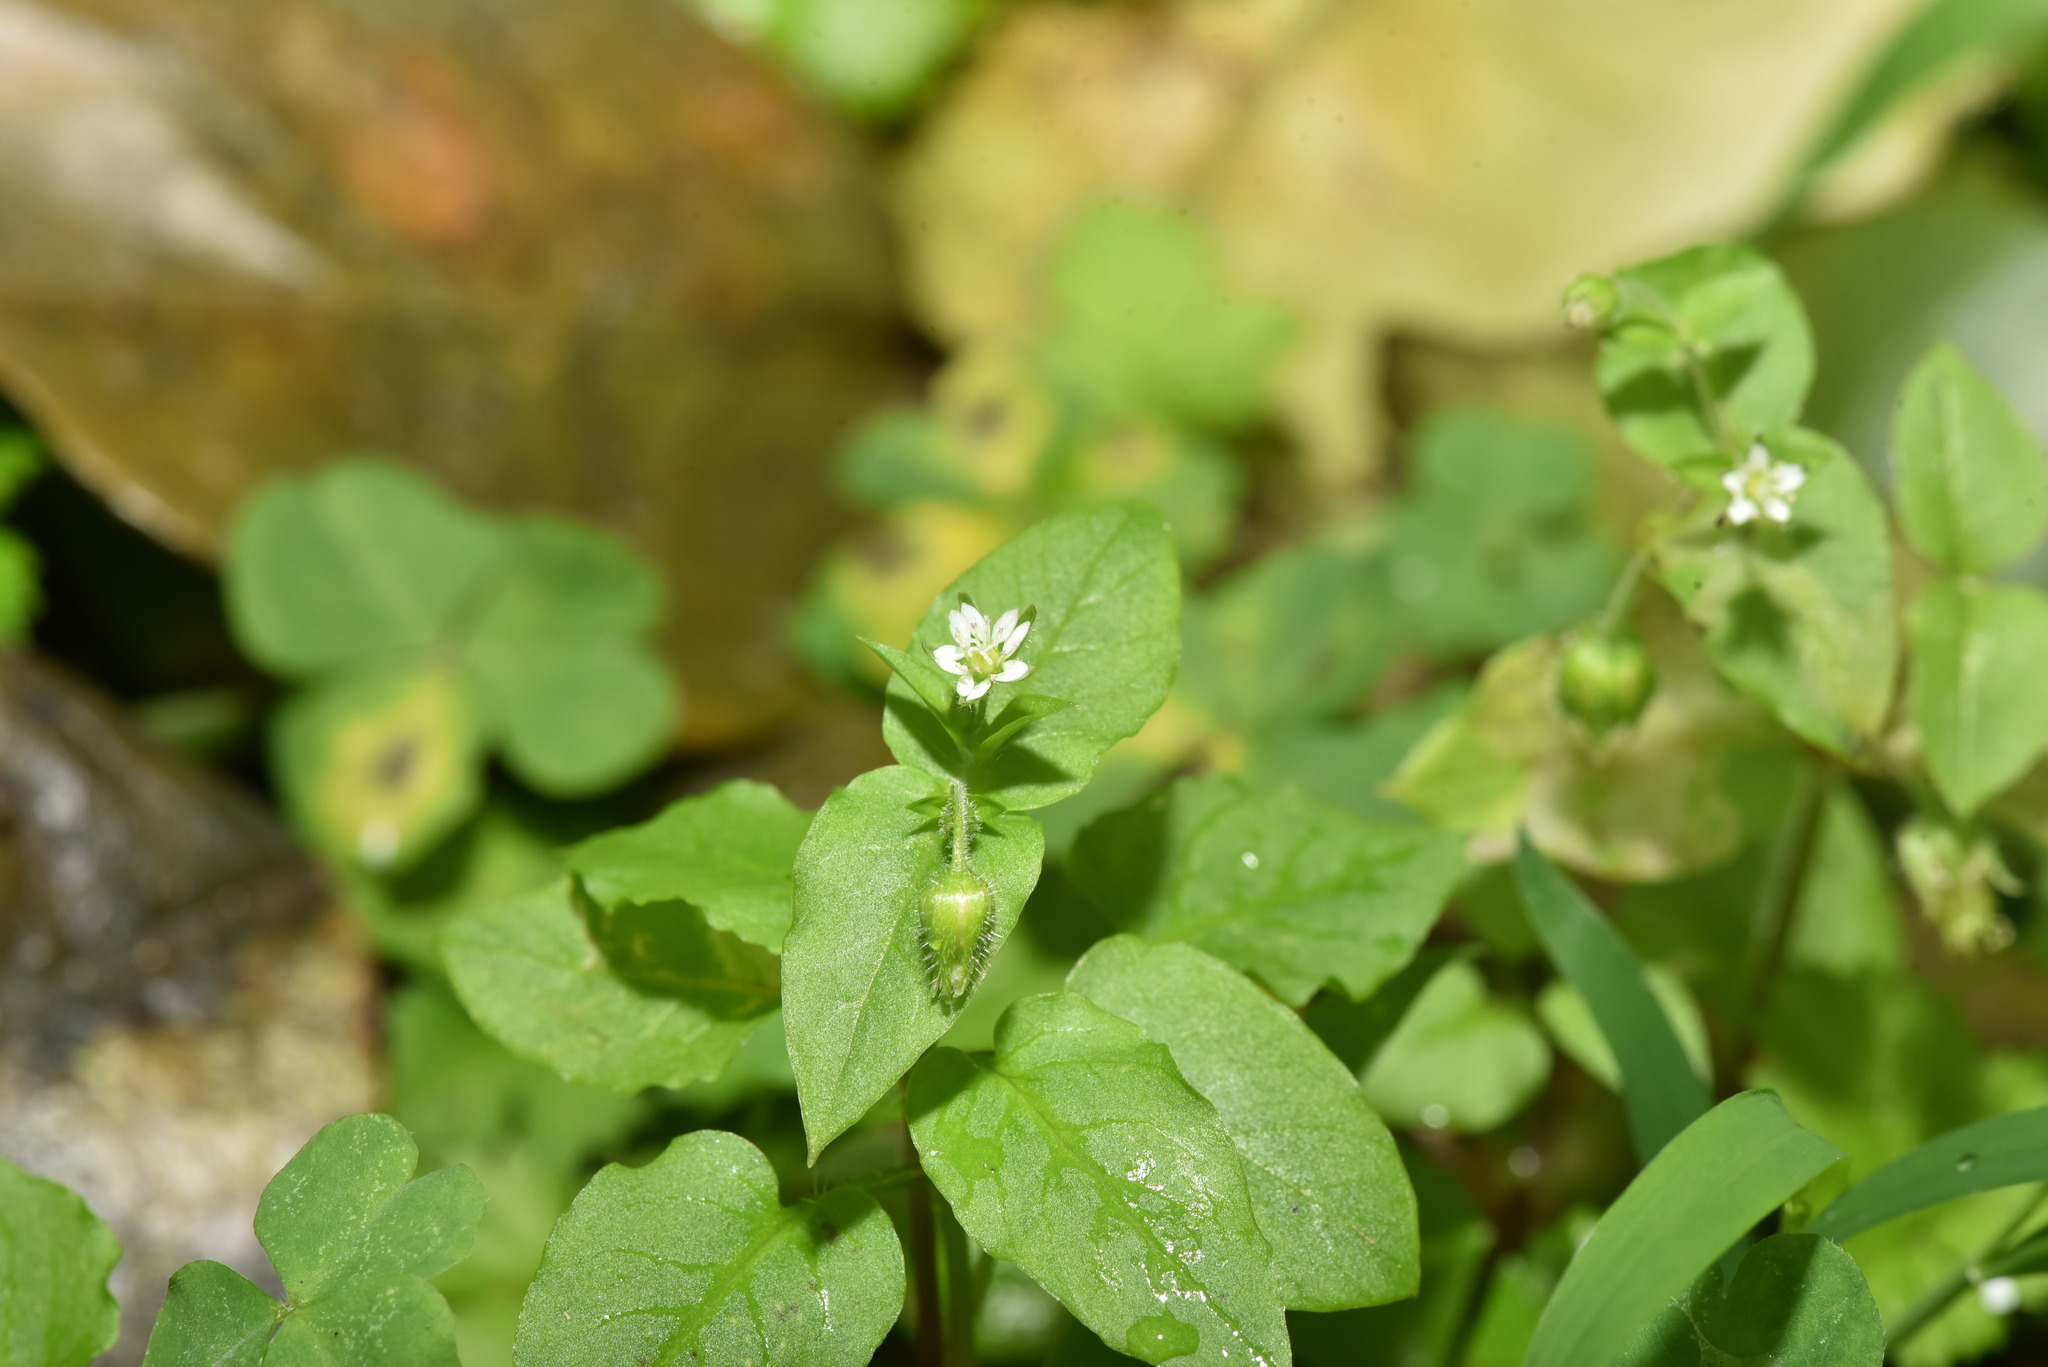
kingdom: Plantae
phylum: Tracheophyta
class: Magnoliopsida
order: Caryophyllales
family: Caryophyllaceae
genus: Stellaria
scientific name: Stellaria aquatica
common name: Water chickweed
